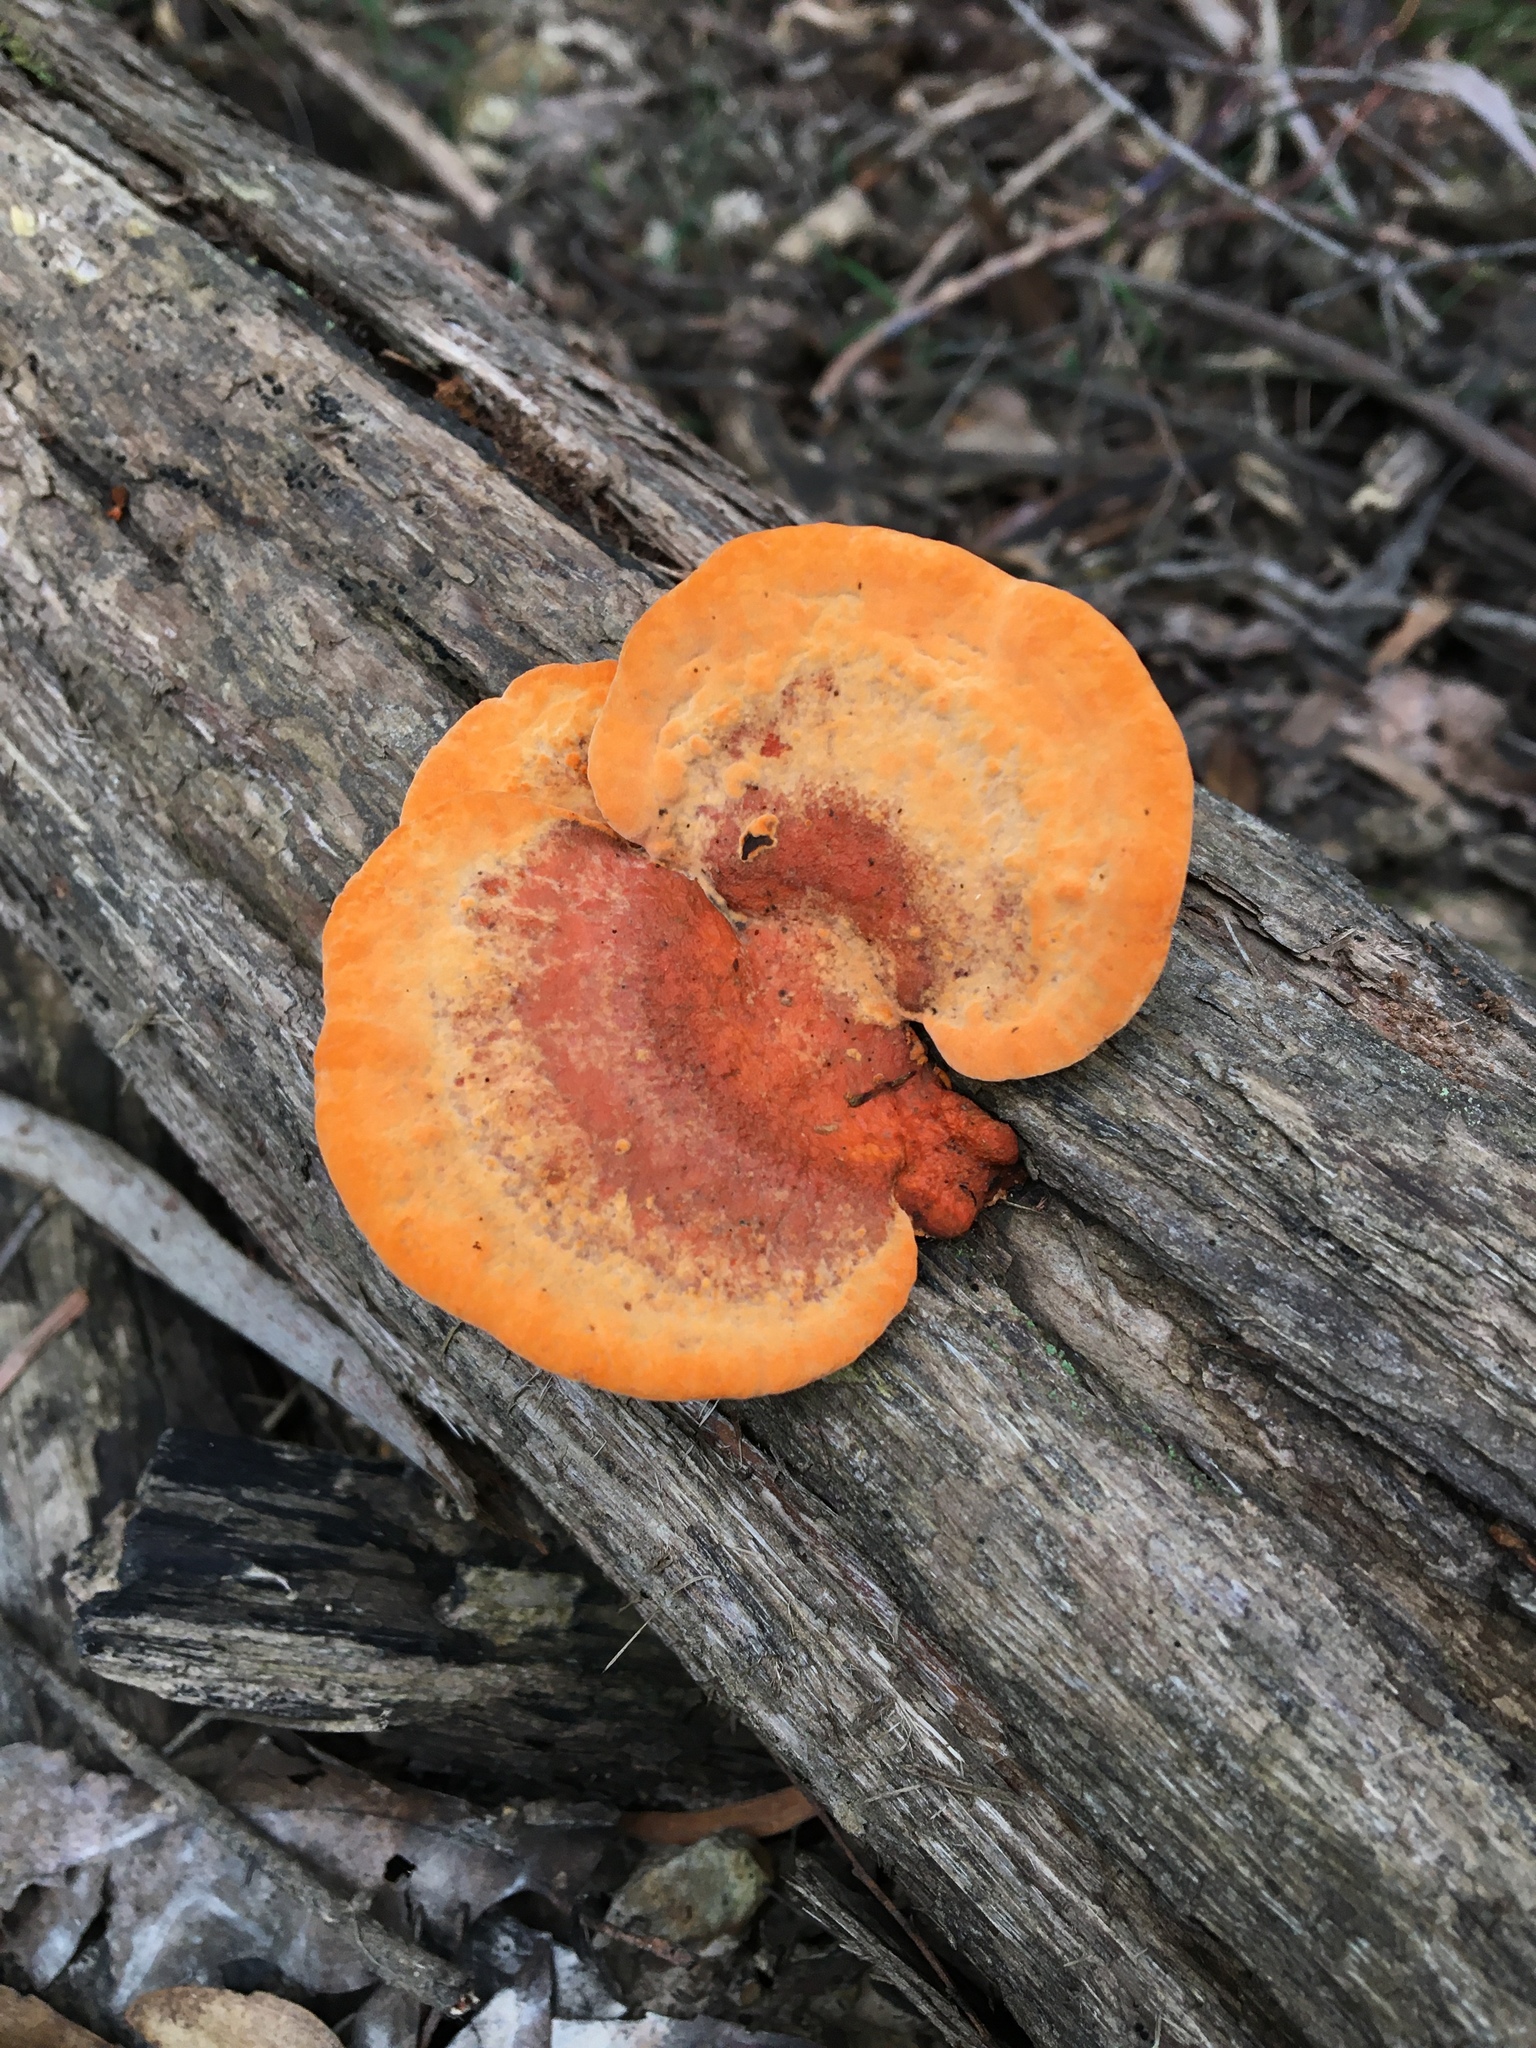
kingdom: Fungi
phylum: Basidiomycota
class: Agaricomycetes
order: Polyporales
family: Polyporaceae
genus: Trametes
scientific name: Trametes coccinea
